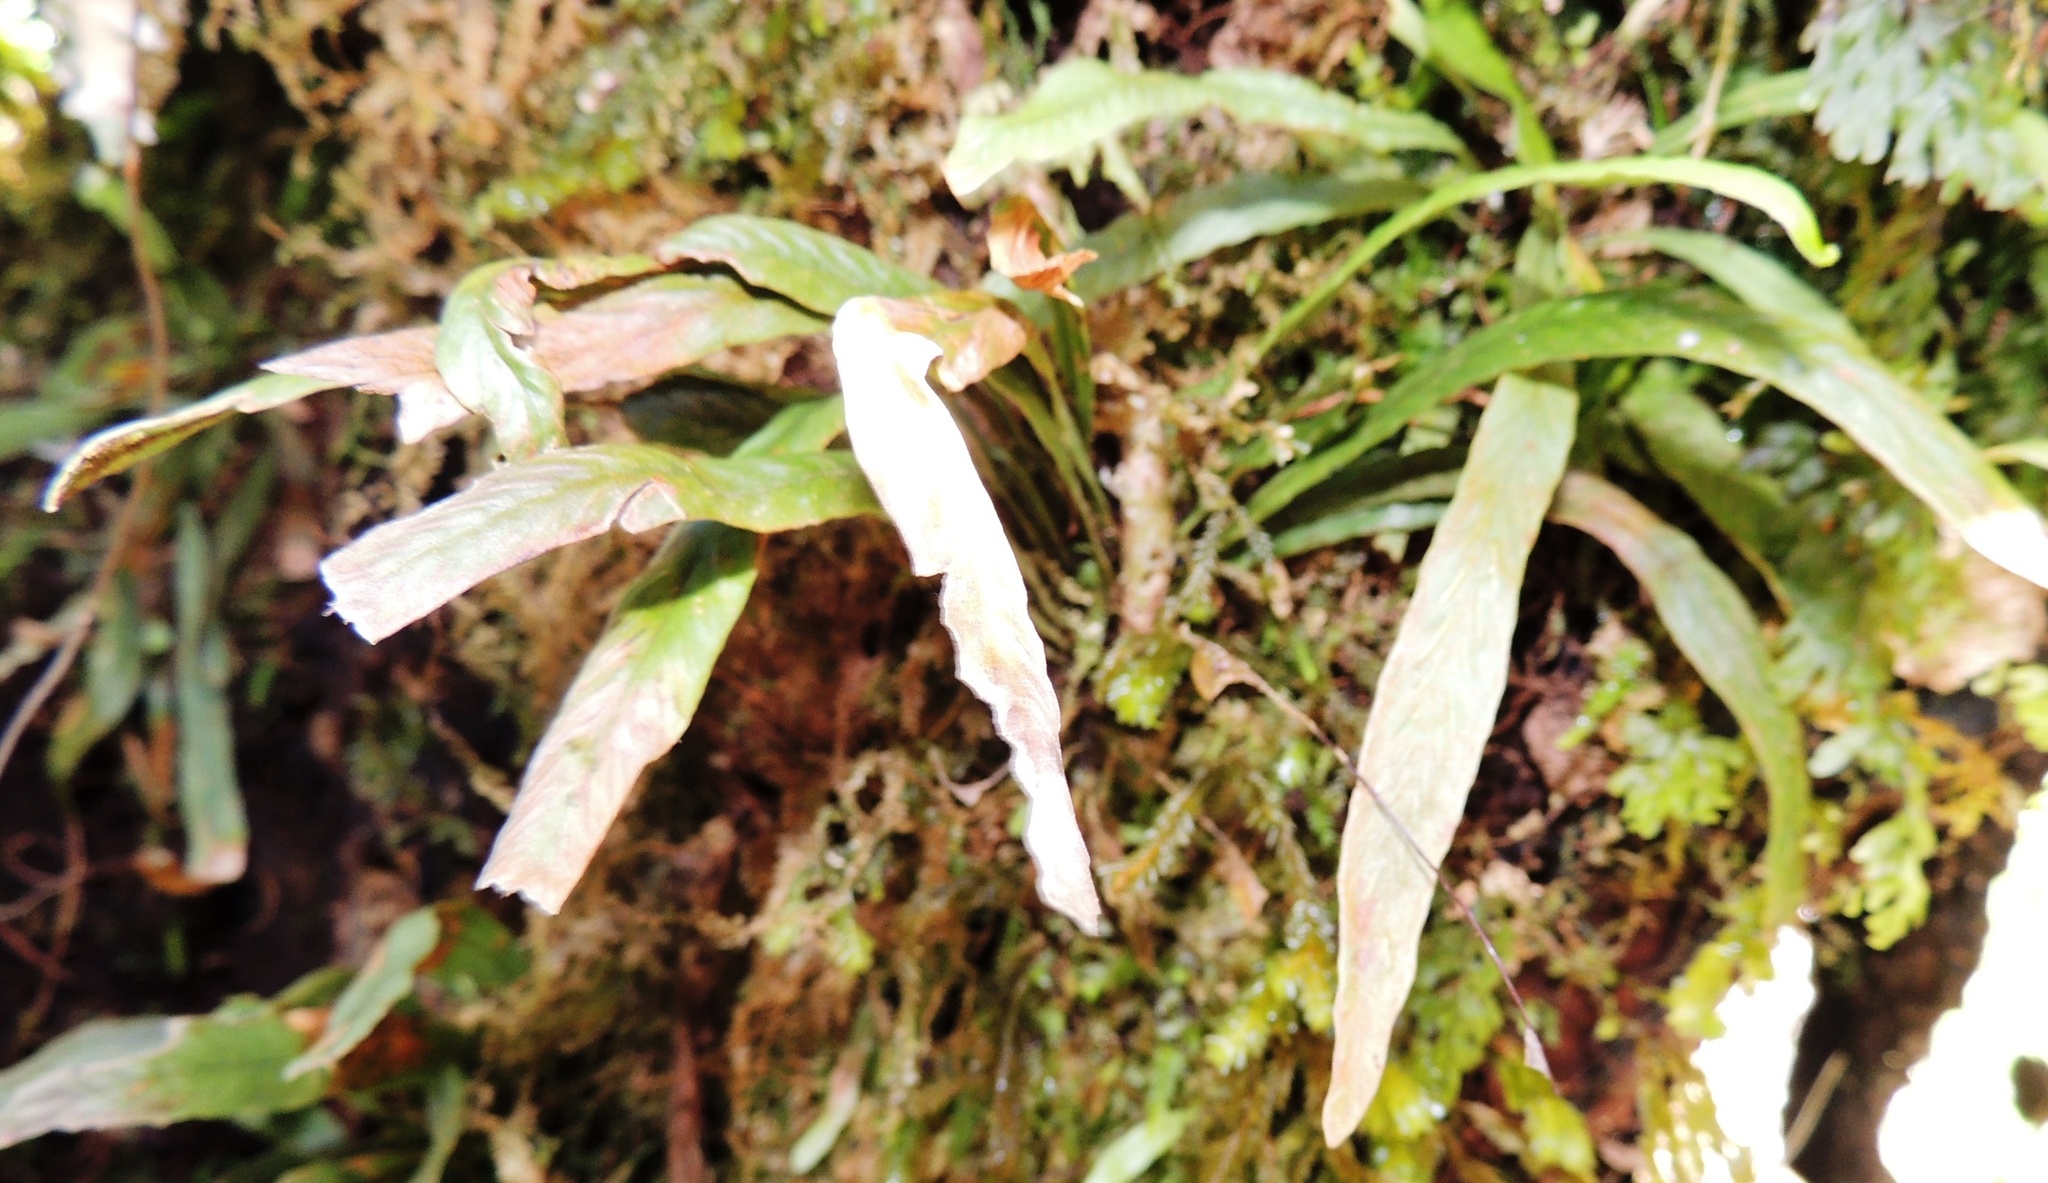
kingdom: Plantae
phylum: Tracheophyta
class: Polypodiopsida
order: Polypodiales
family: Polypodiaceae
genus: Notogrammitis
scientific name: Notogrammitis billardierei
